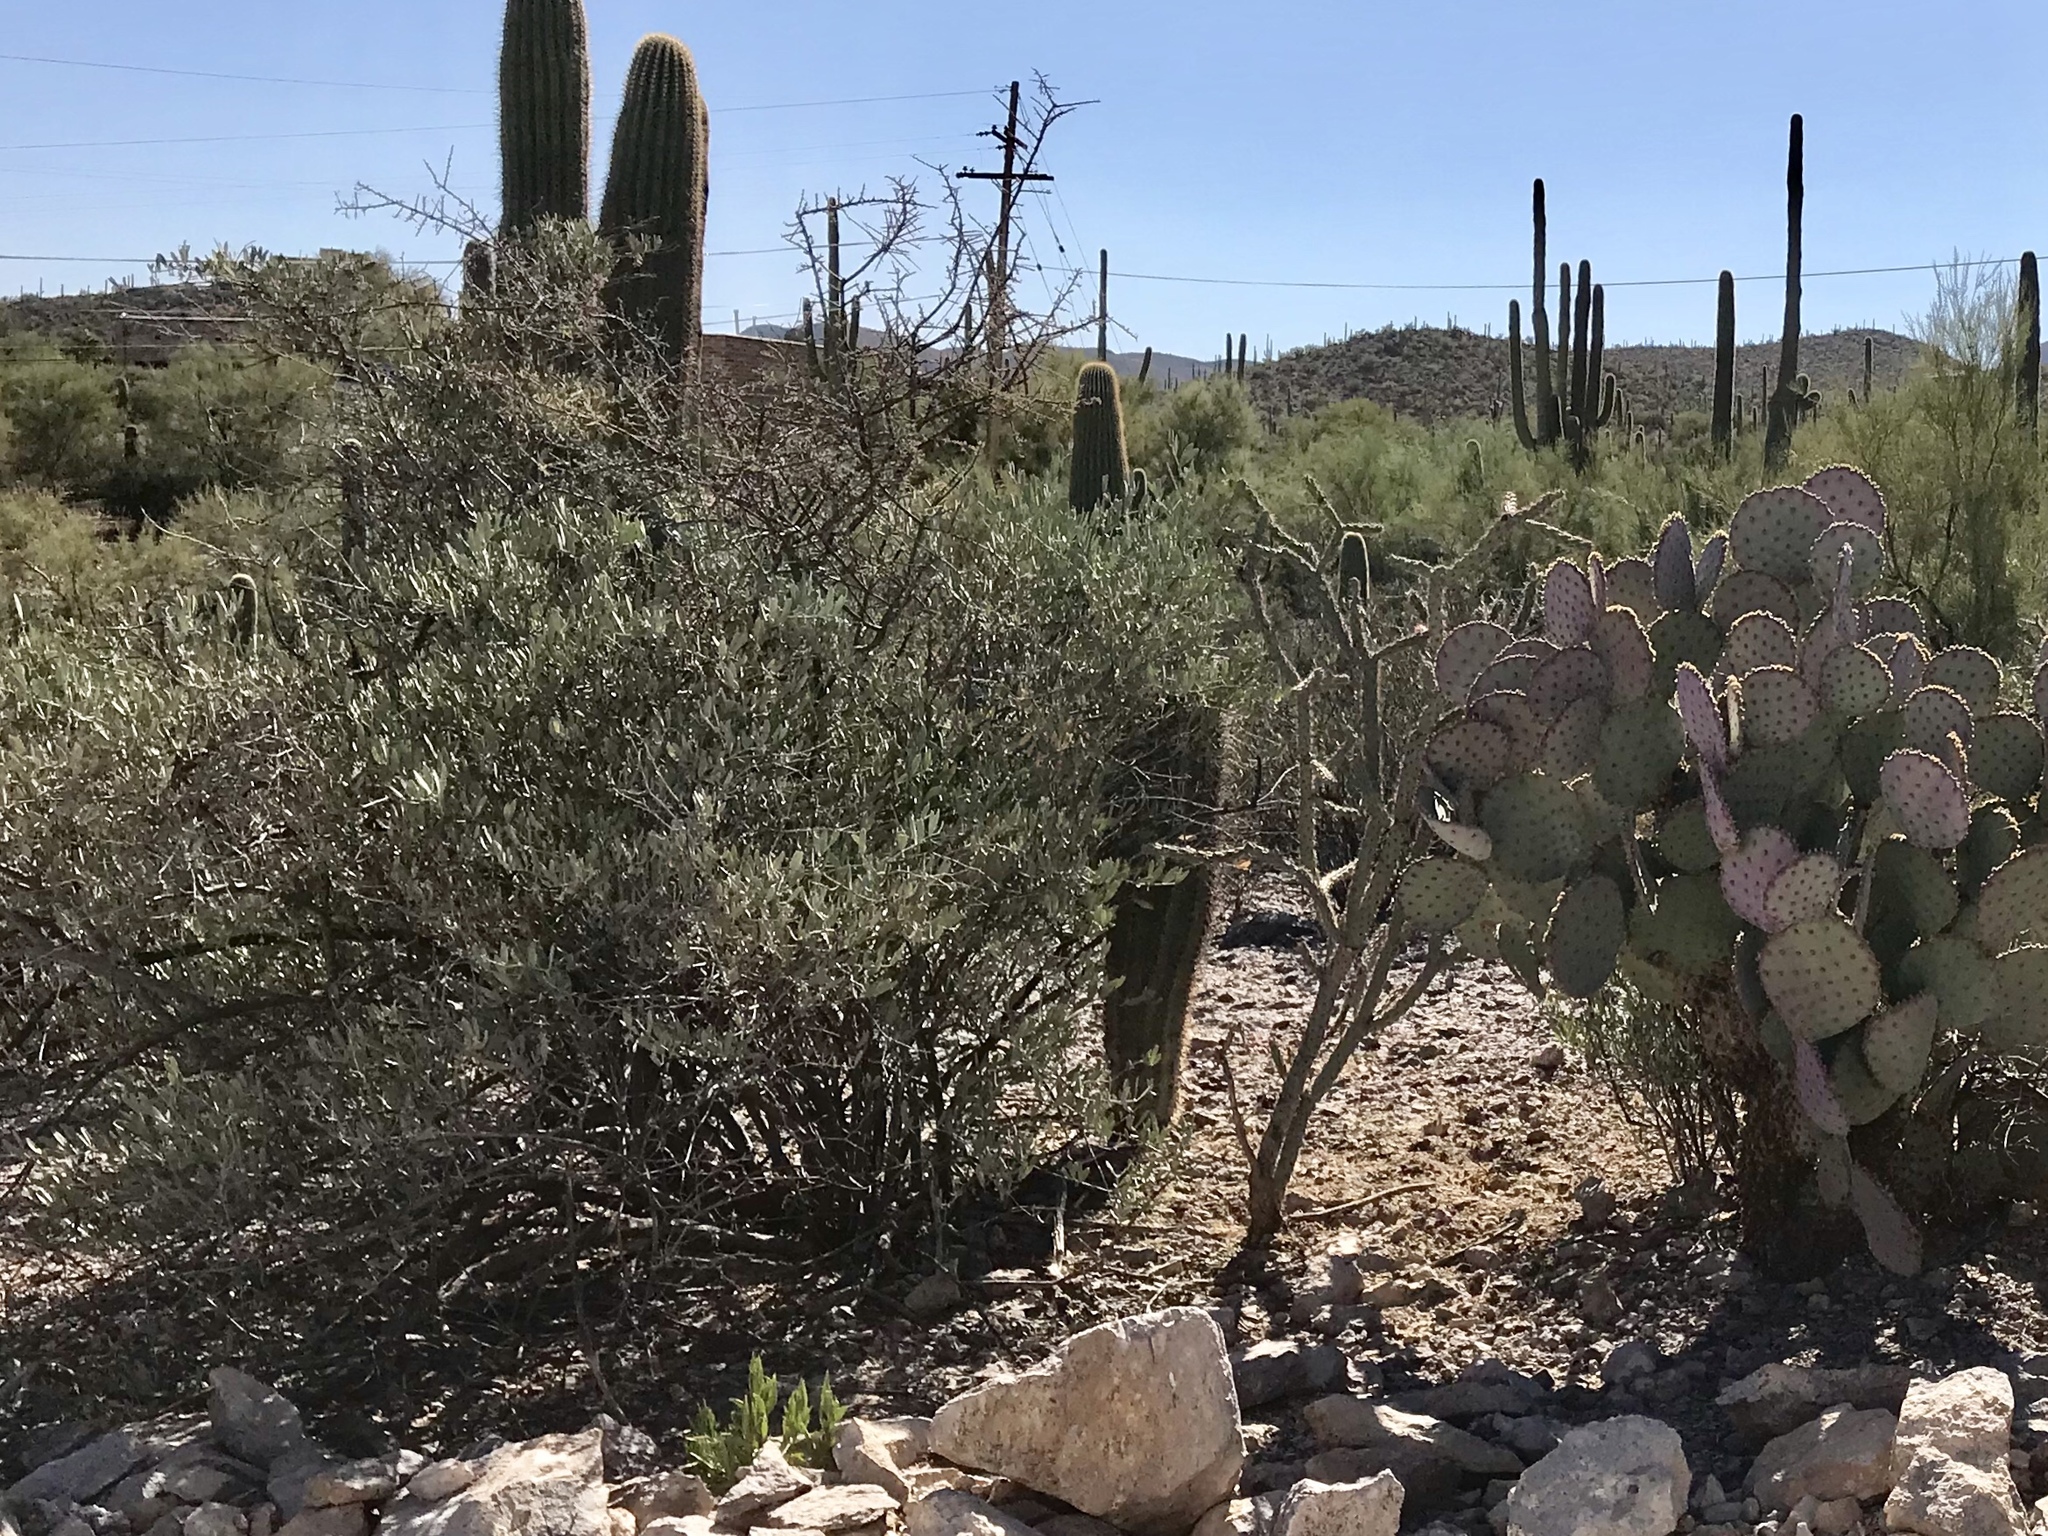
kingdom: Plantae
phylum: Tracheophyta
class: Magnoliopsida
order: Caryophyllales
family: Simmondsiaceae
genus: Simmondsia
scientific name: Simmondsia chinensis
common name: Jojoba
